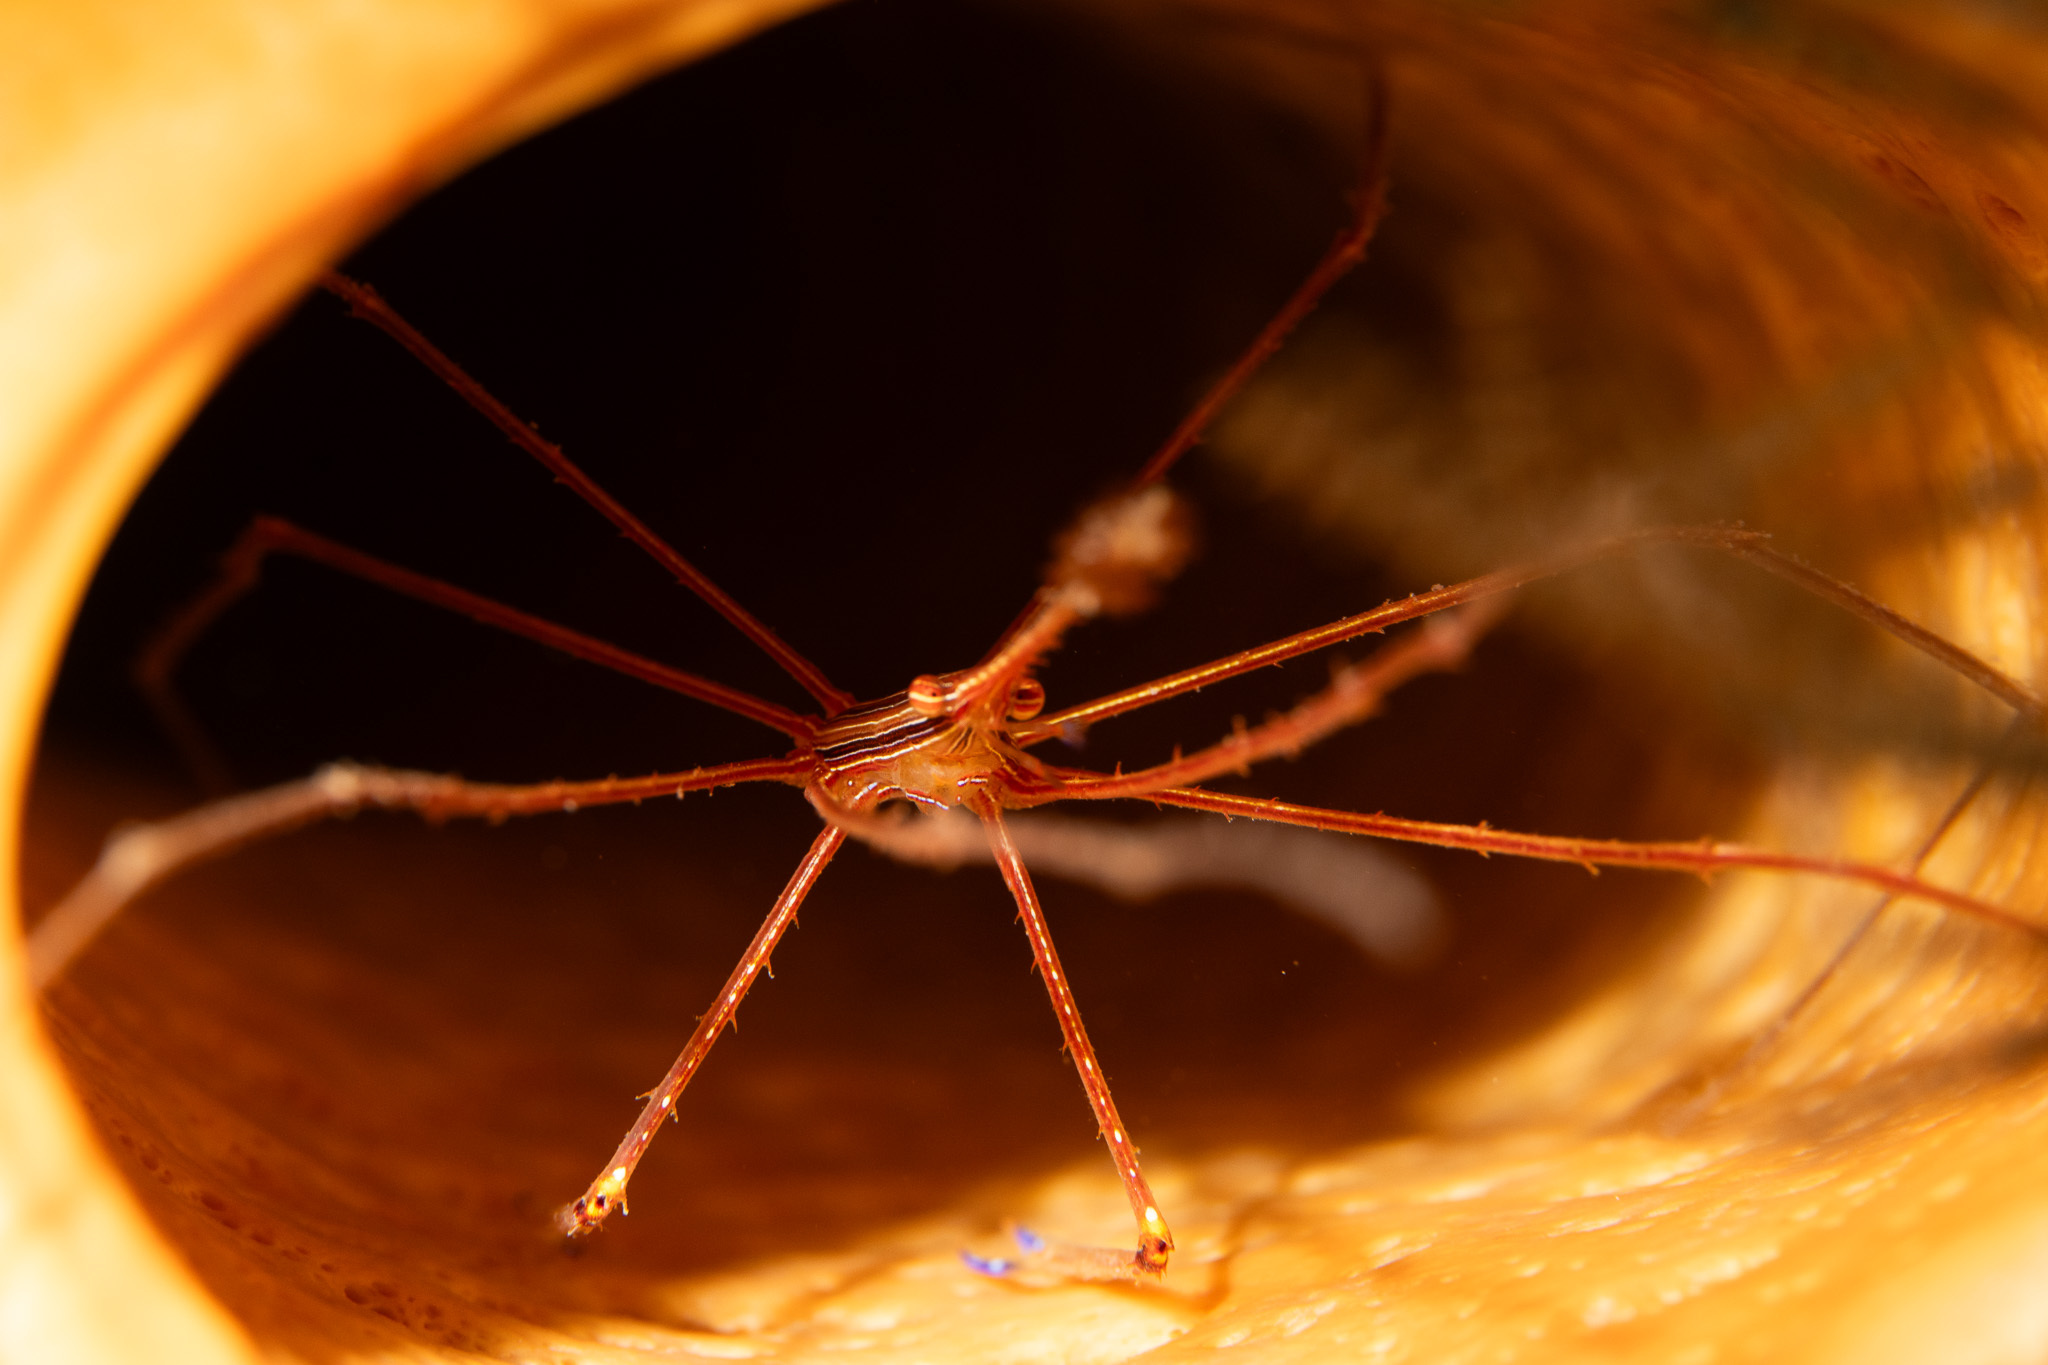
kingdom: Animalia
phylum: Arthropoda
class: Malacostraca
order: Decapoda
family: Inachoididae
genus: Stenorhynchus
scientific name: Stenorhynchus seticornis
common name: Arrow crab
